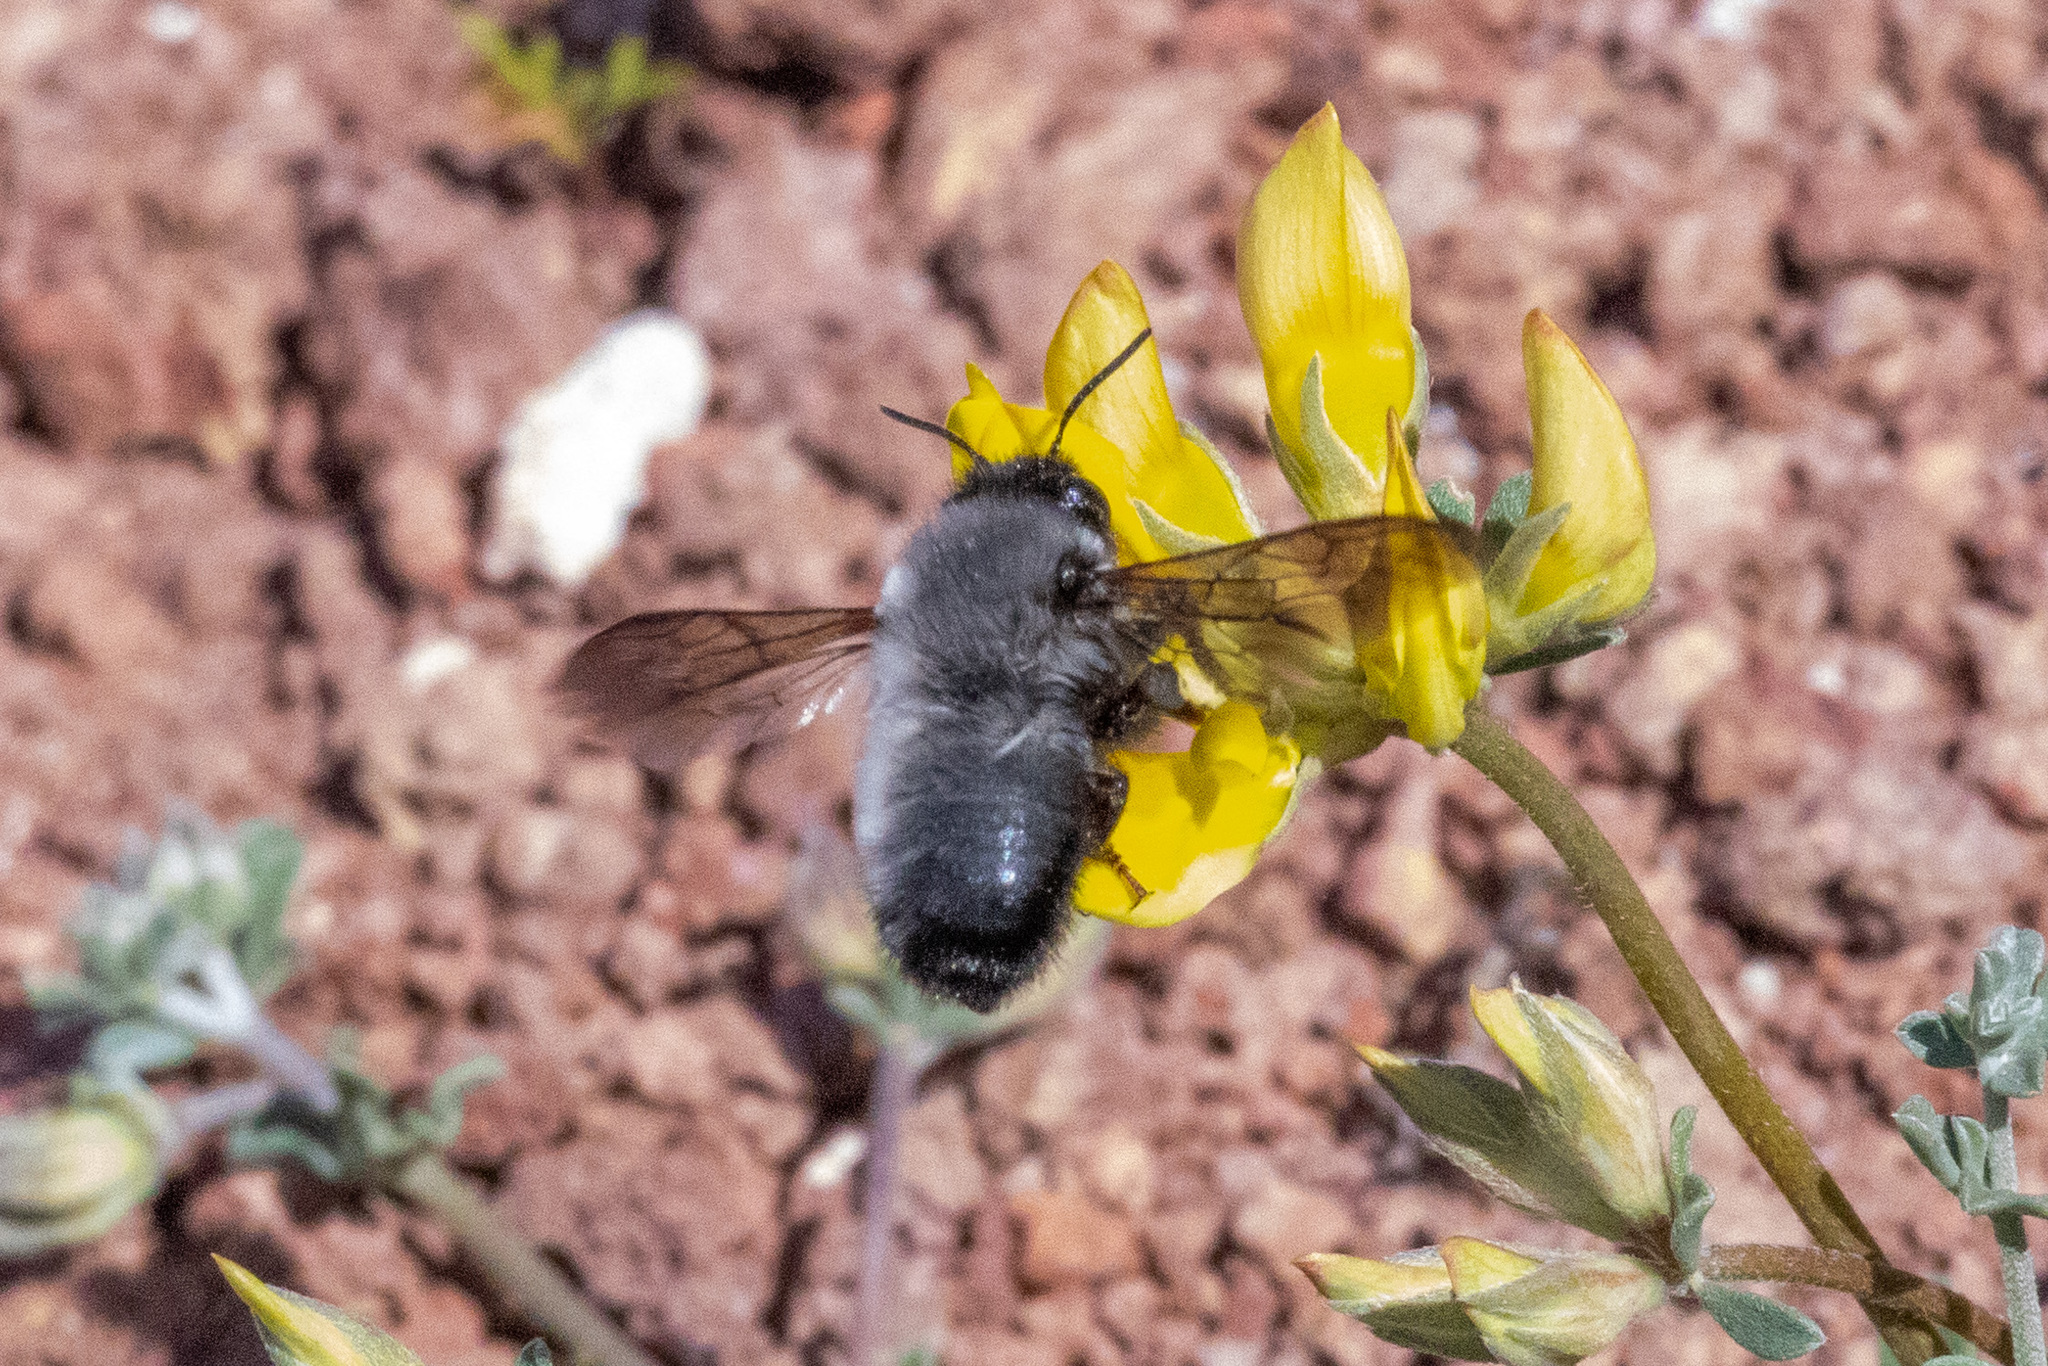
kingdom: Animalia
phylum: Arthropoda
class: Insecta
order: Hymenoptera
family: Megachilidae
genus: Megachile
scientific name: Megachile canescens
